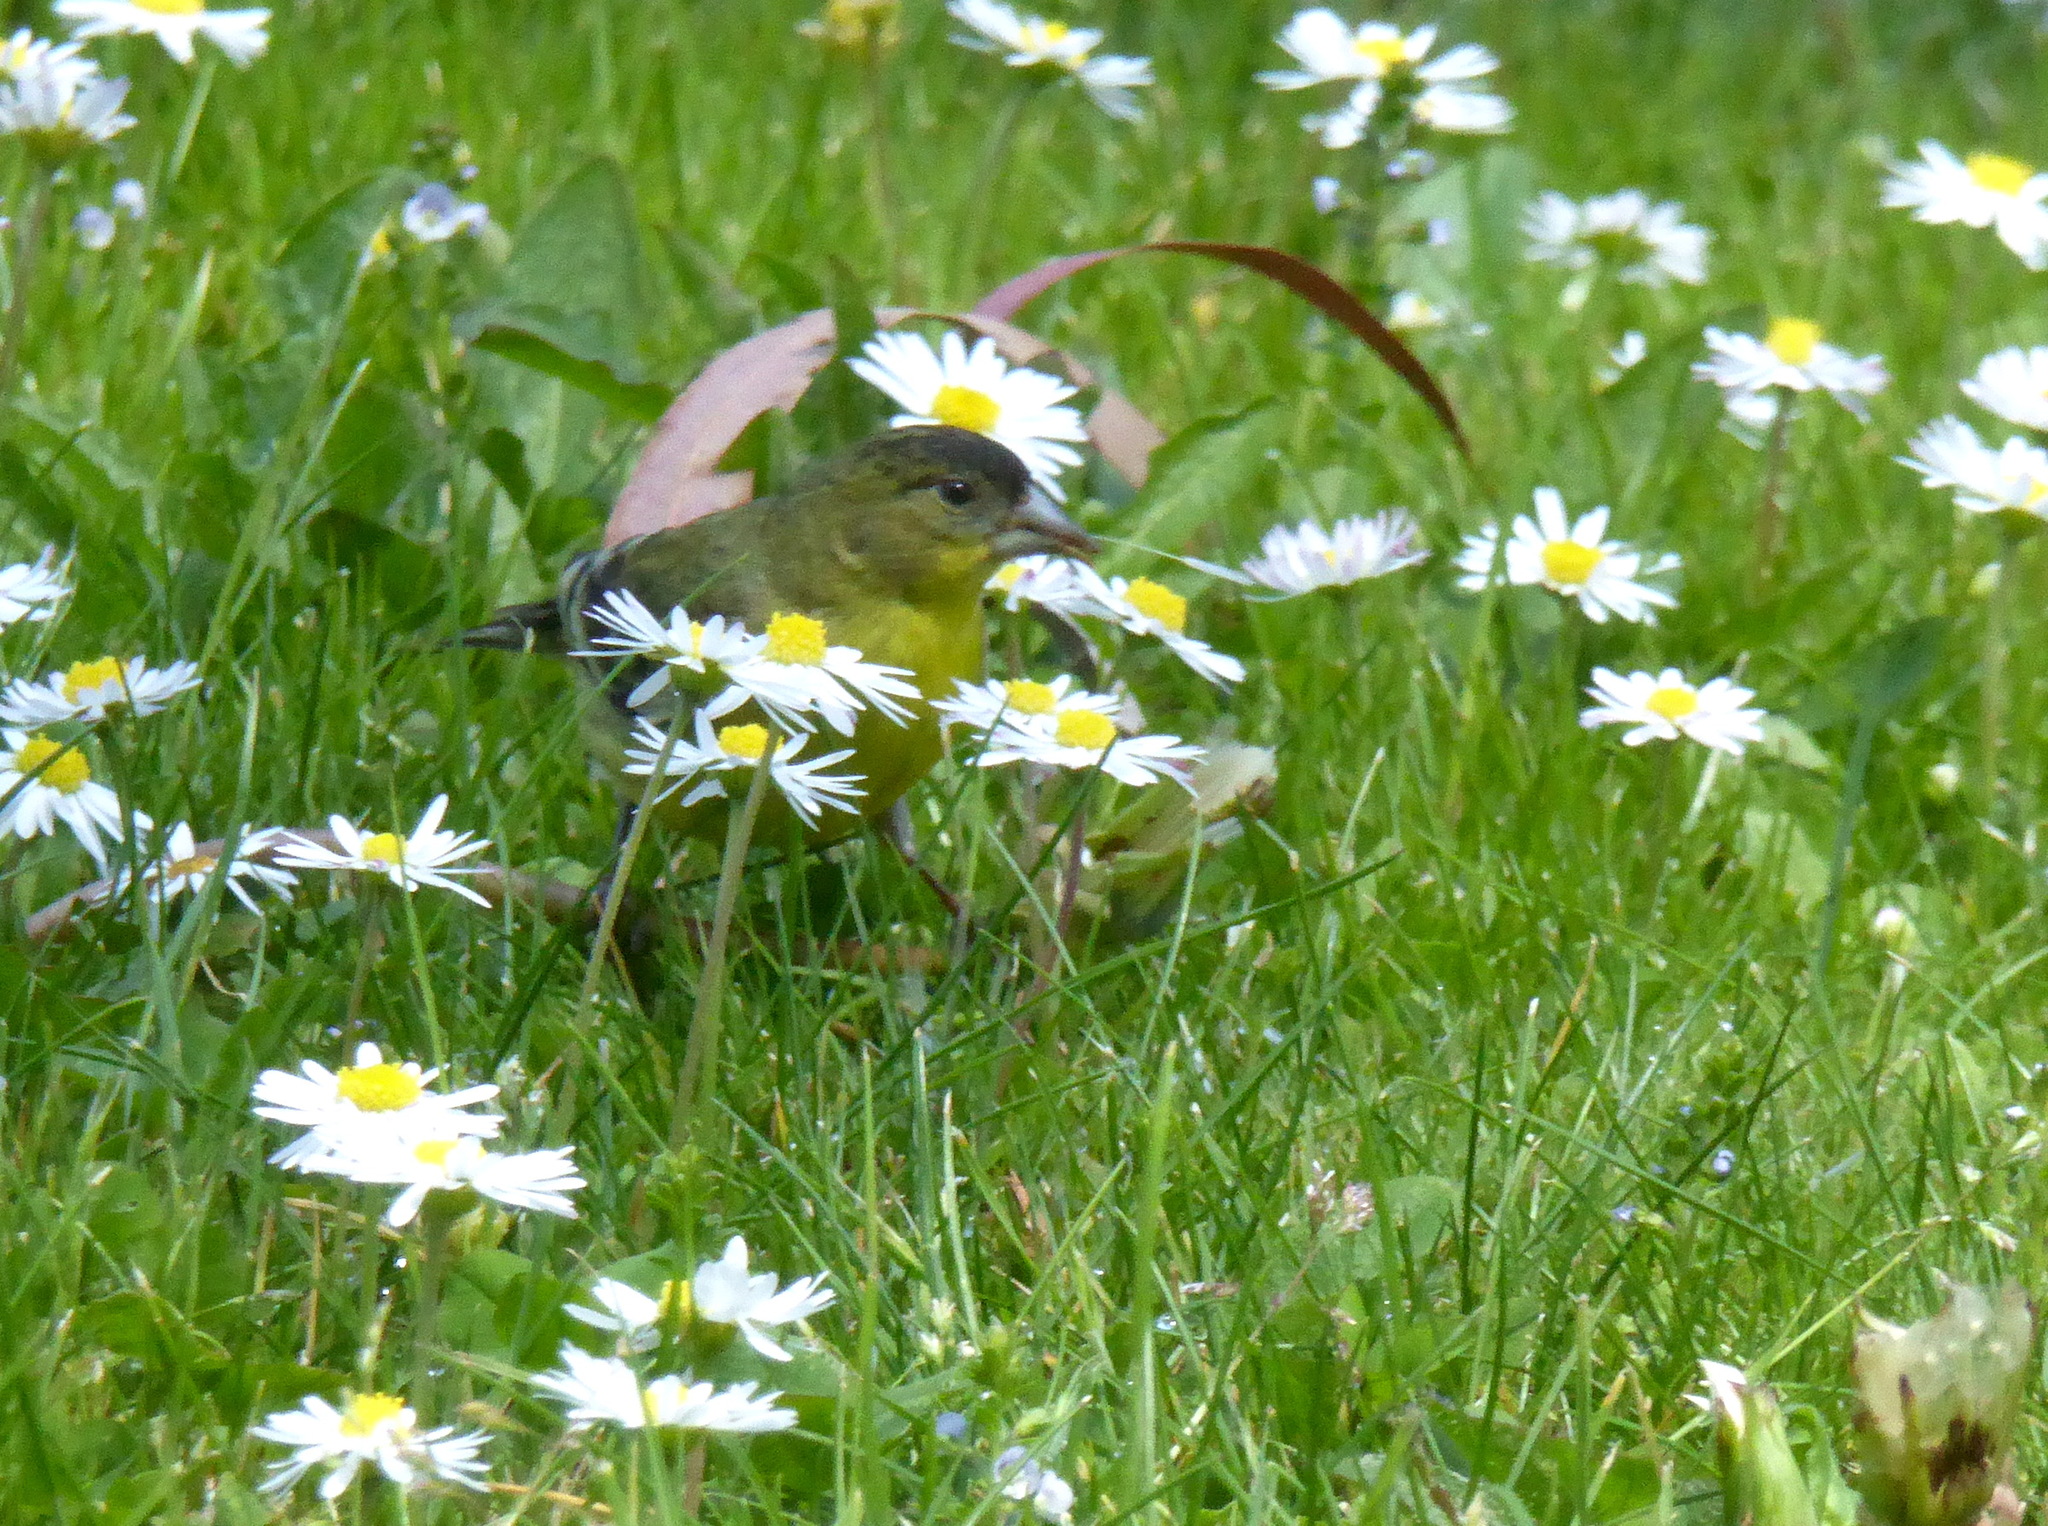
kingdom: Animalia
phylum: Chordata
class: Aves
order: Passeriformes
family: Fringillidae
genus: Spinus
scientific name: Spinus psaltria
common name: Lesser goldfinch
